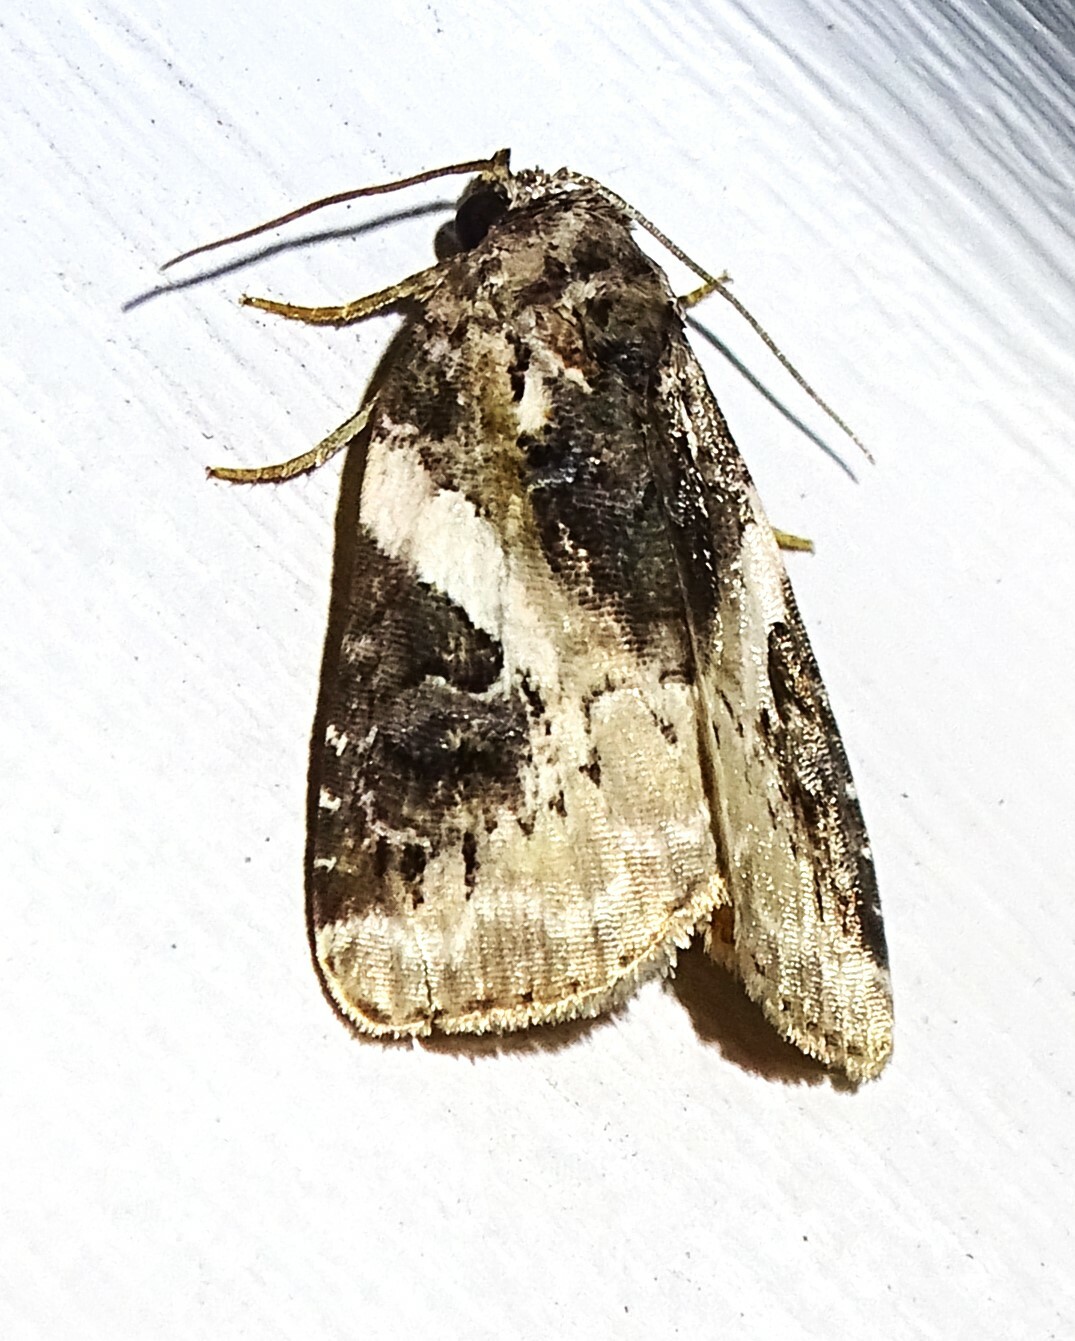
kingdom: Animalia
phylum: Arthropoda
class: Insecta
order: Lepidoptera
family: Noctuidae
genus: Pseudeustrotia
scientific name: Pseudeustrotia carneola
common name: Pink-barred lithacodia moth
